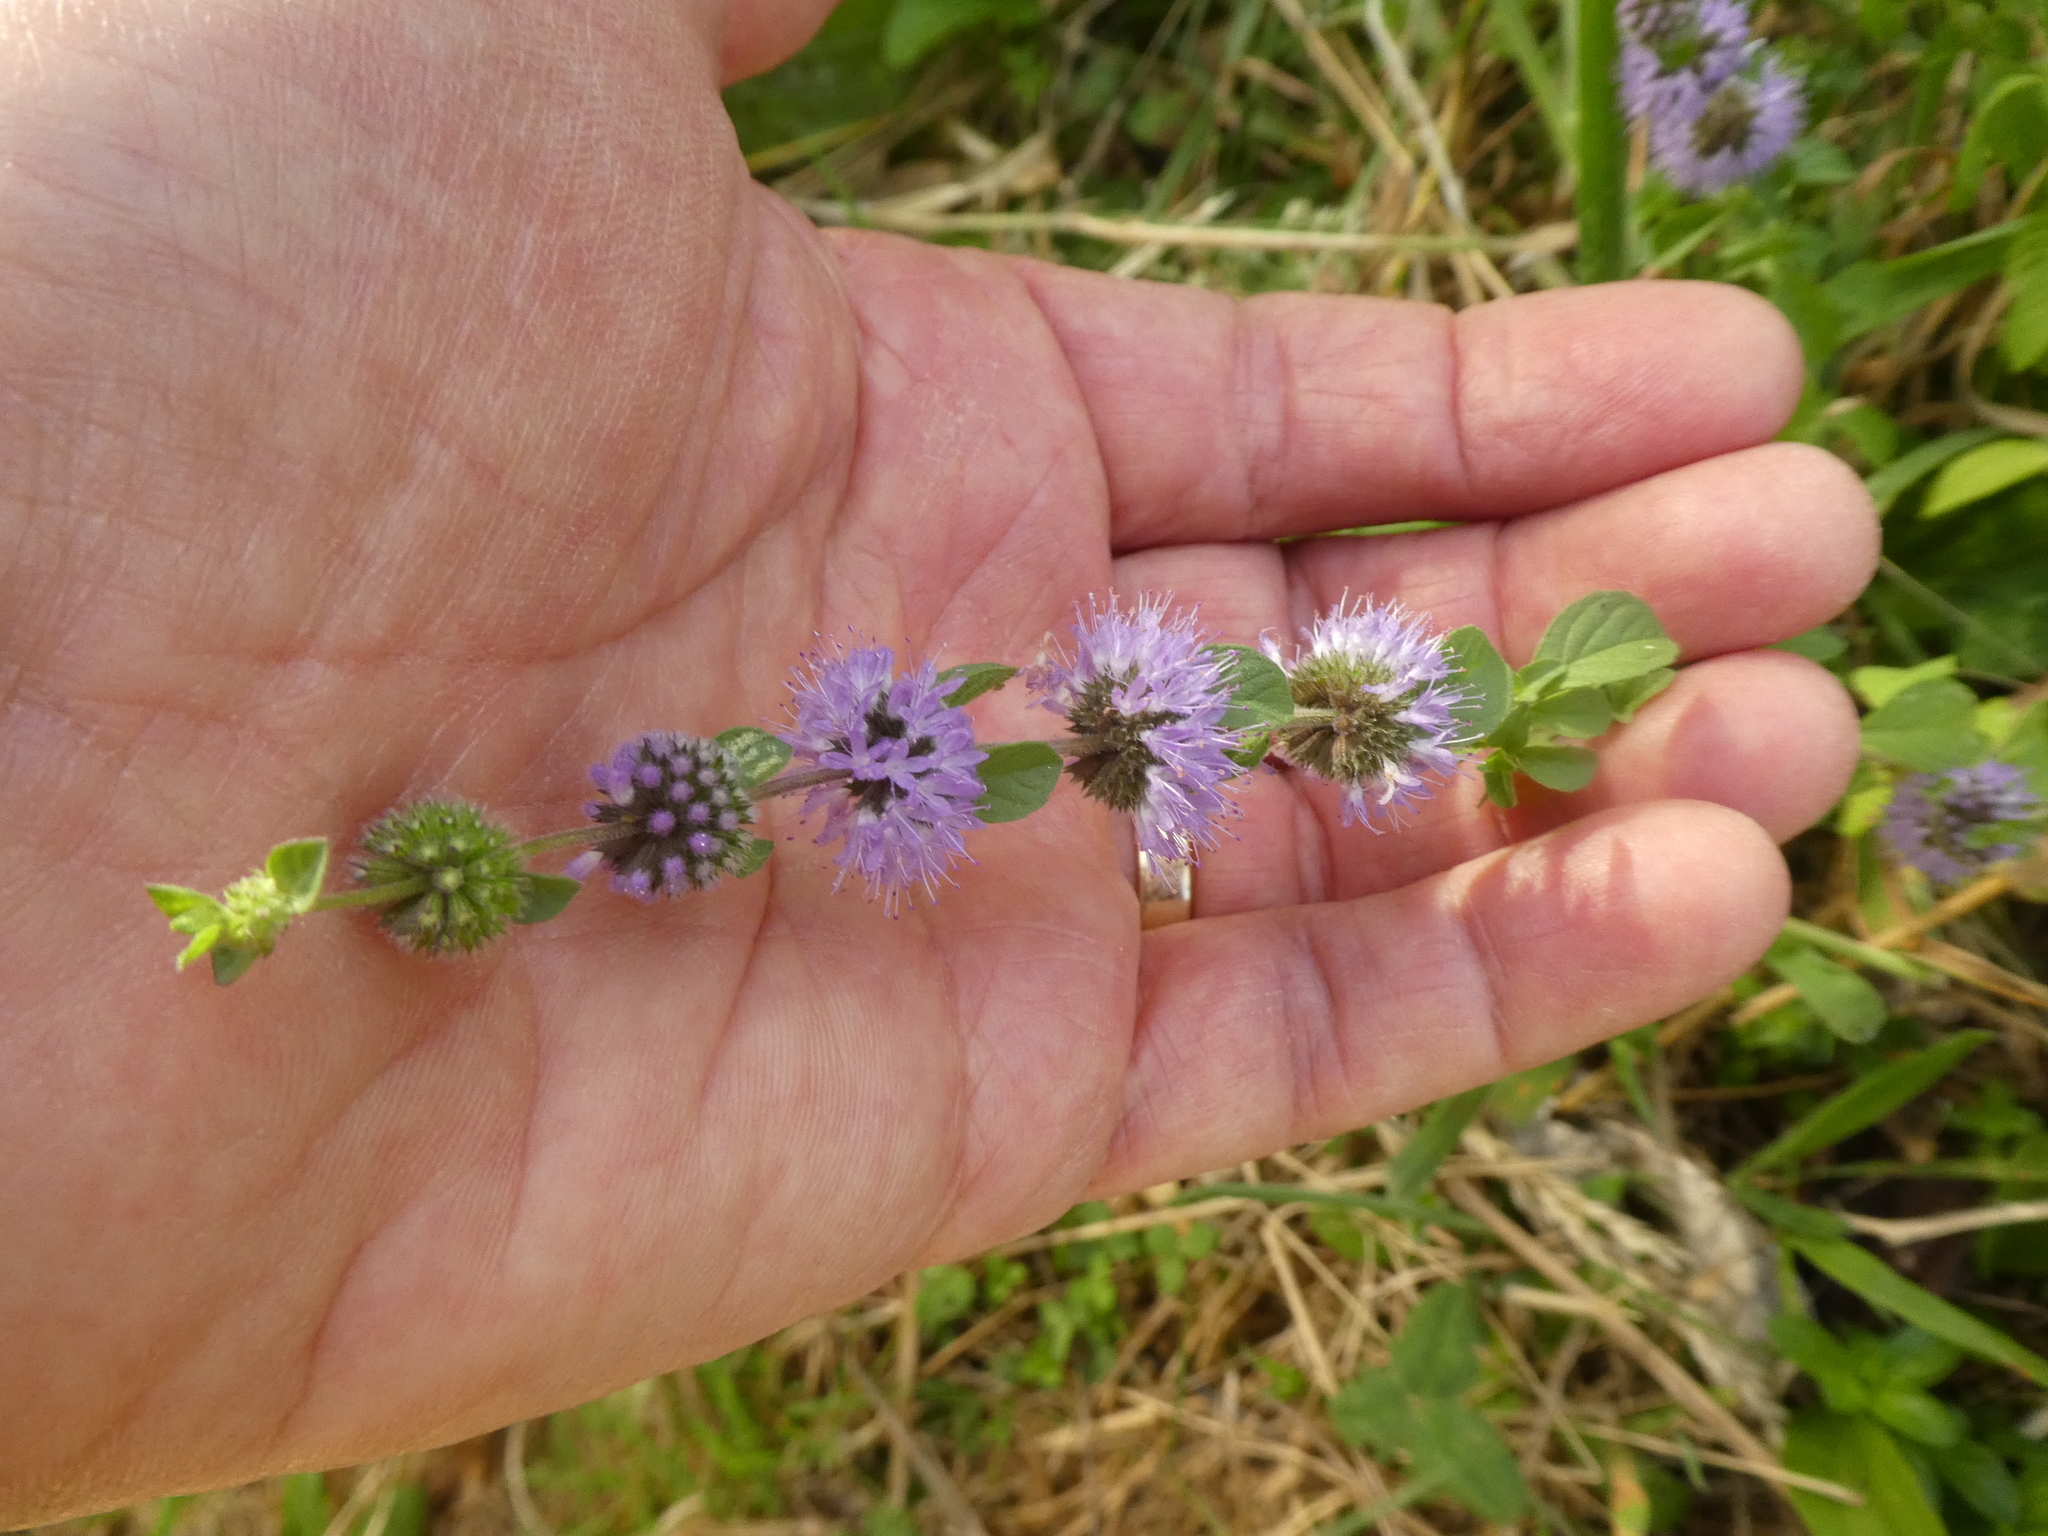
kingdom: Plantae
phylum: Tracheophyta
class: Magnoliopsida
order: Lamiales
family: Lamiaceae
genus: Mentha
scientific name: Mentha pulegium
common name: Pennyroyal
